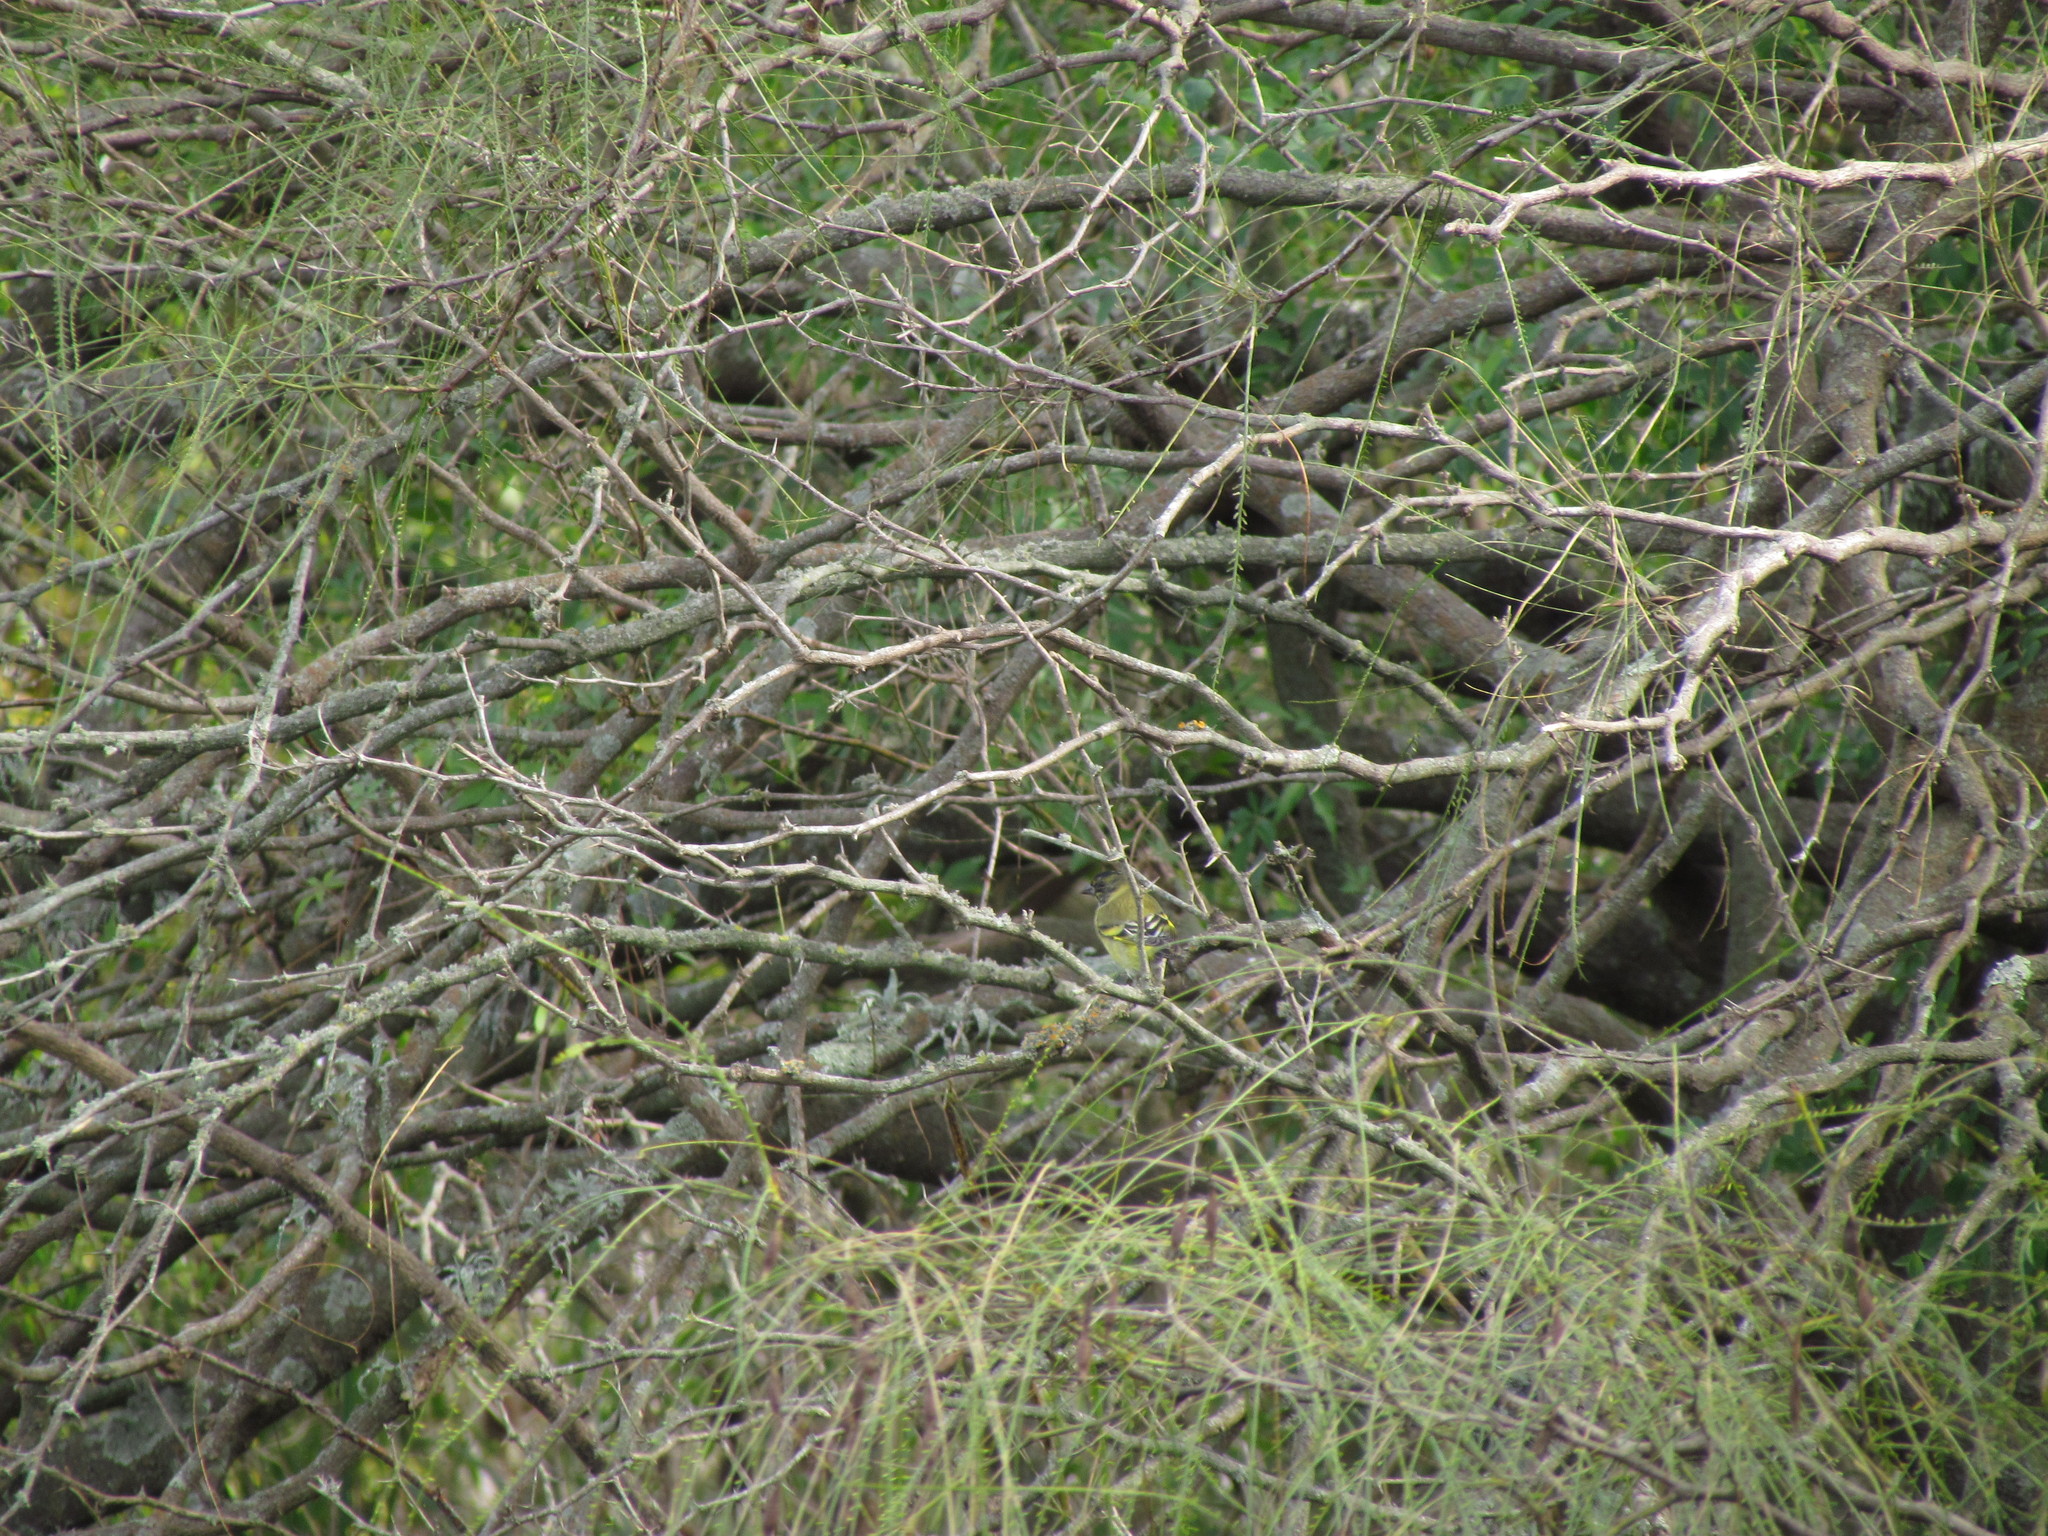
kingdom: Animalia
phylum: Chordata
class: Aves
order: Passeriformes
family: Fringillidae
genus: Spinus
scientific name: Spinus magellanicus
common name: Hooded siskin
